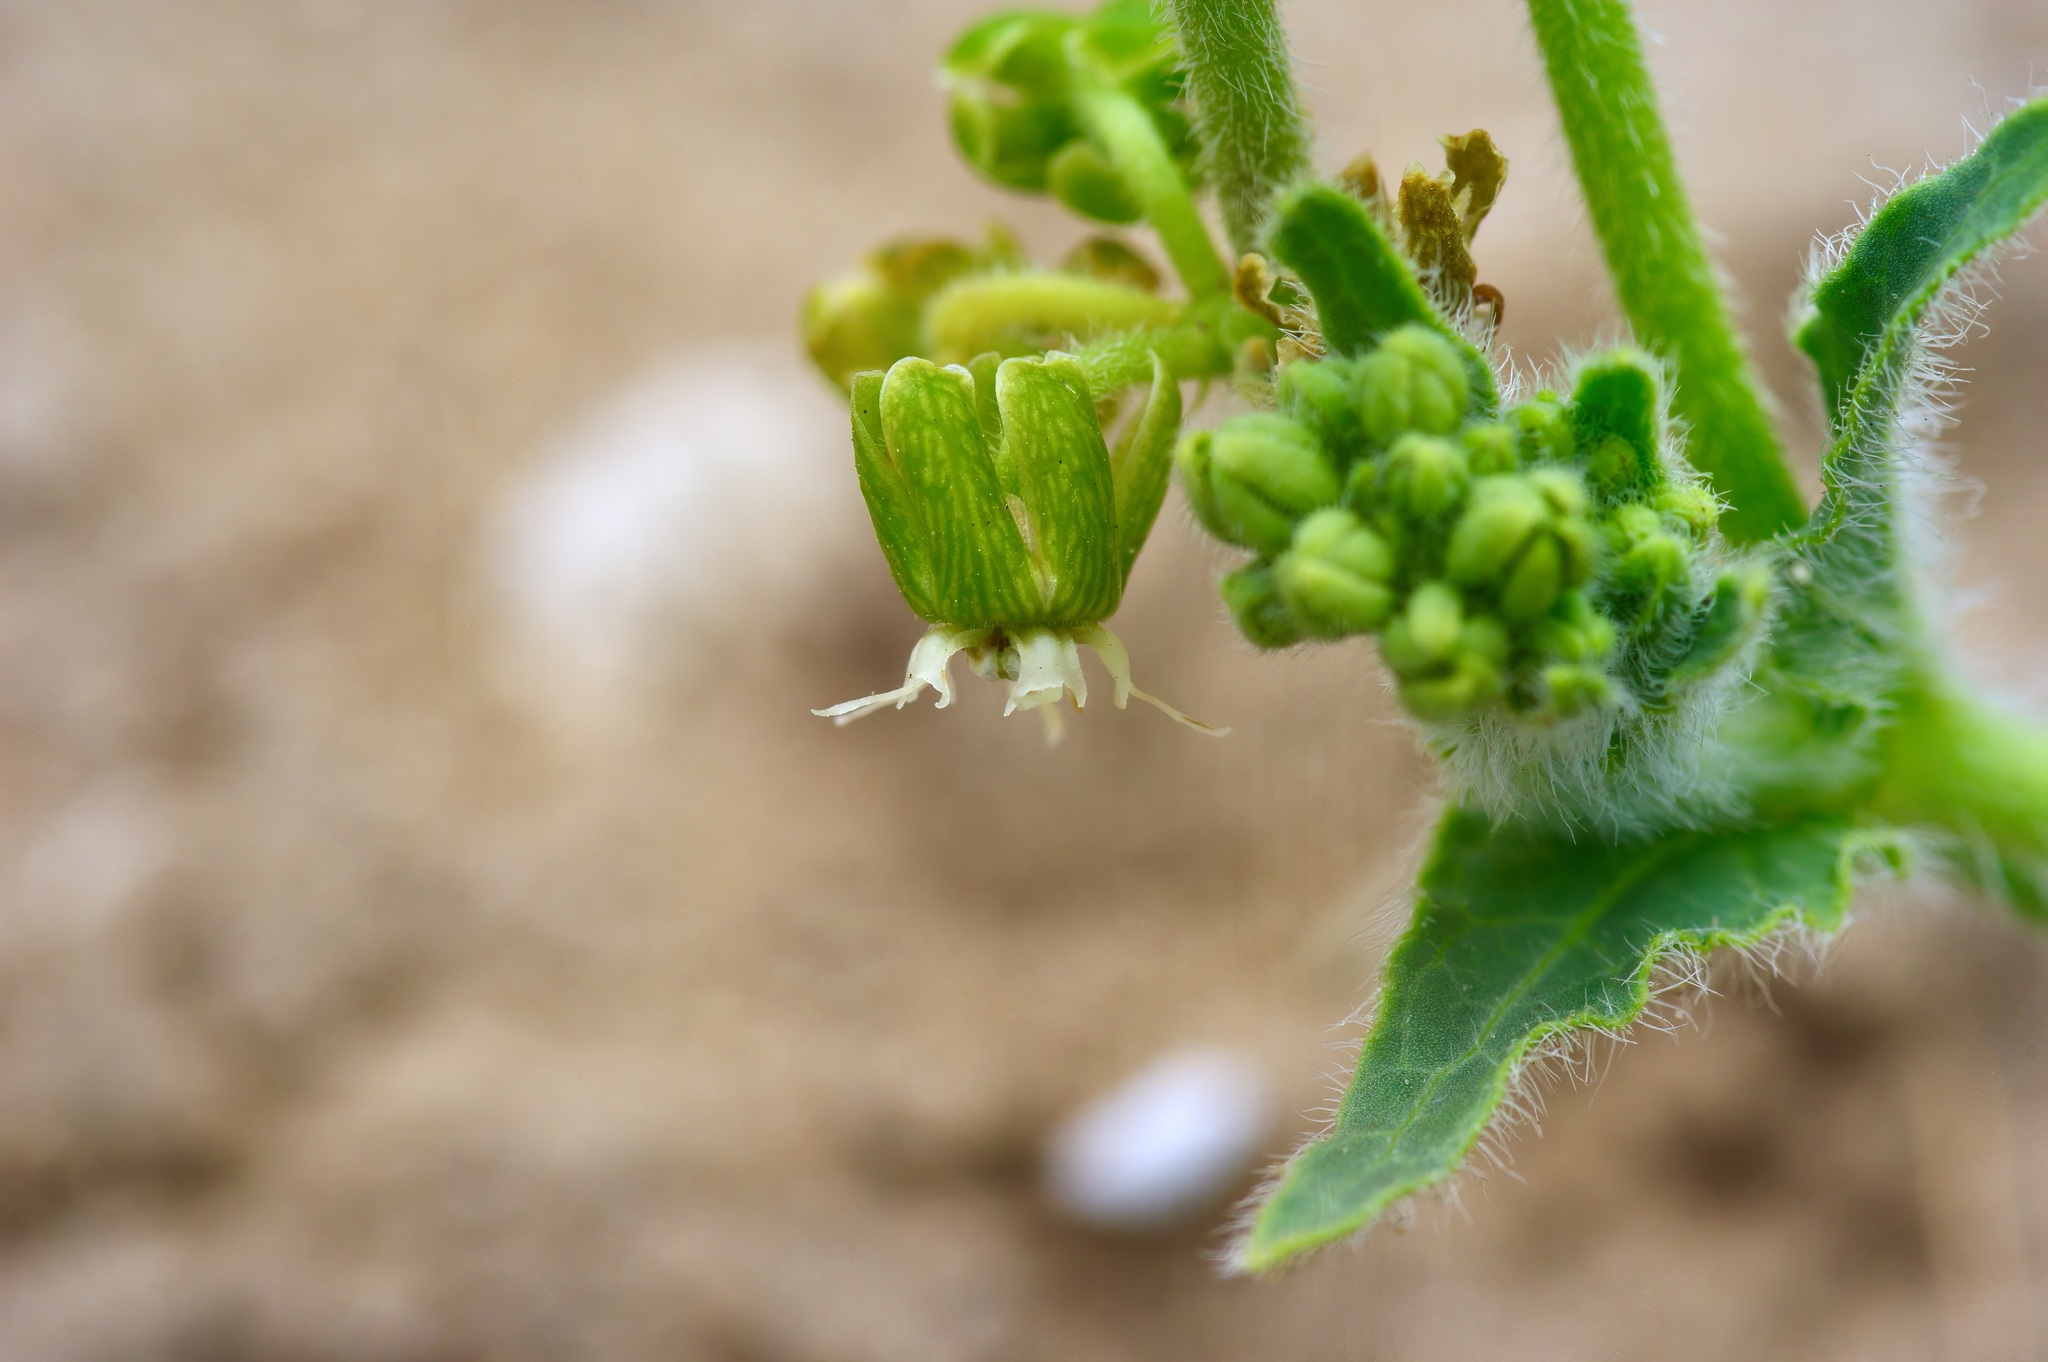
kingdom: Plantae
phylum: Tracheophyta
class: Magnoliopsida
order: Gentianales
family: Apocynaceae
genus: Chthamalia
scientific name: Chthamalia parviflora
